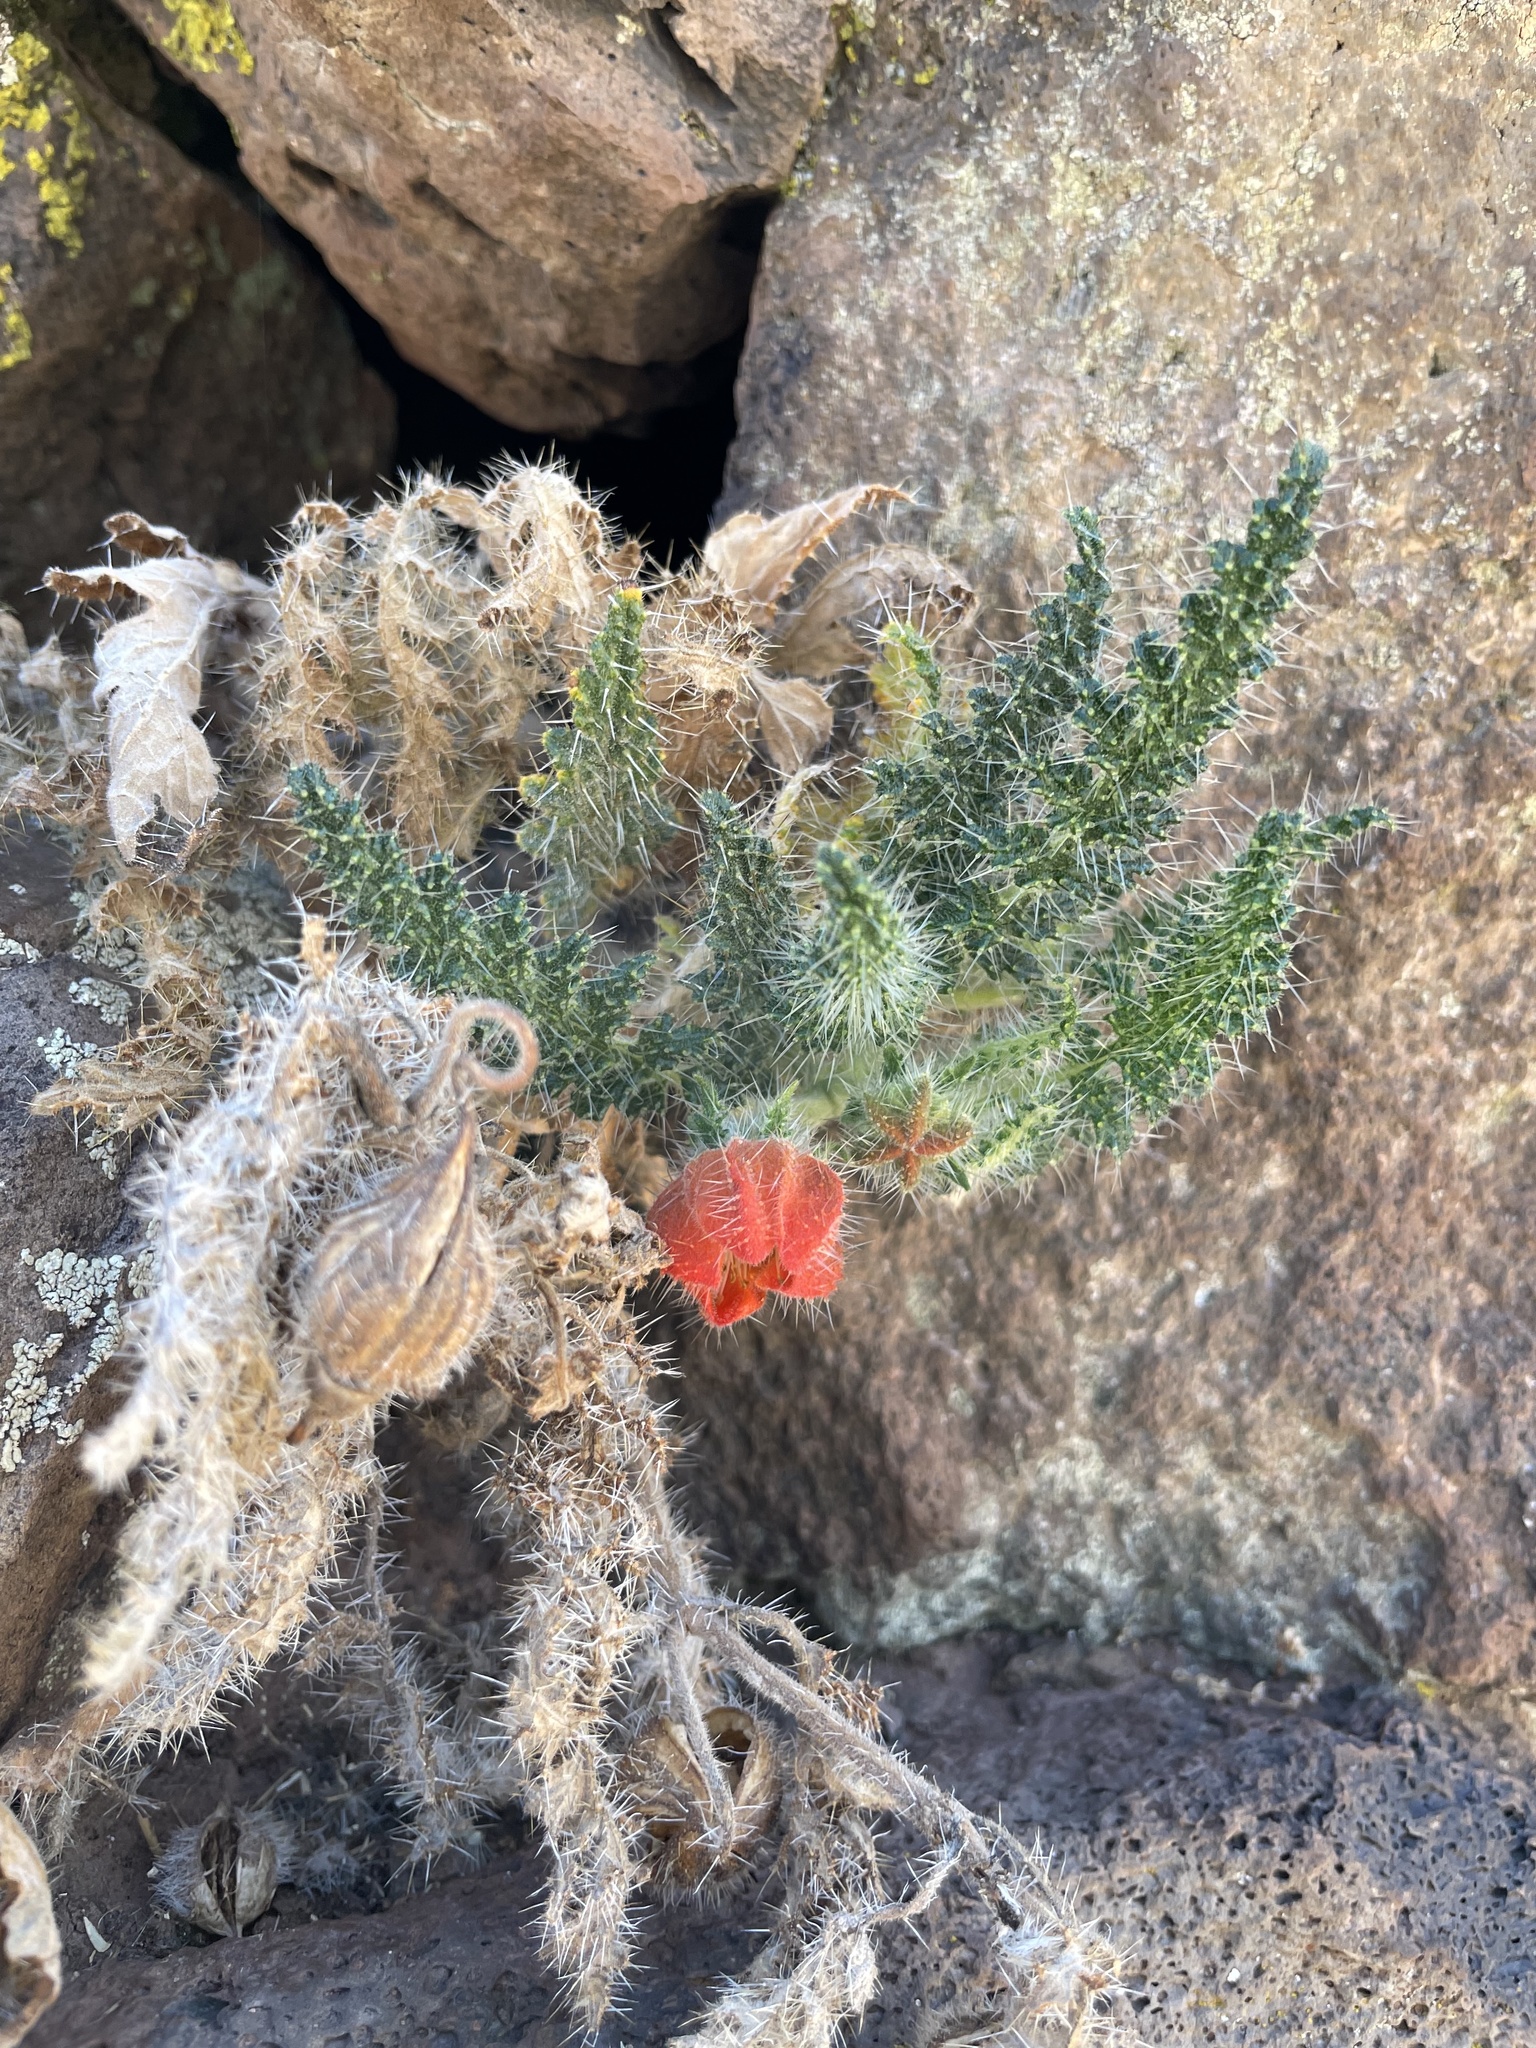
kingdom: Plantae
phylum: Tracheophyta
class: Magnoliopsida
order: Cornales
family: Loasaceae
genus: Caiophora
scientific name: Caiophora pentlandii
